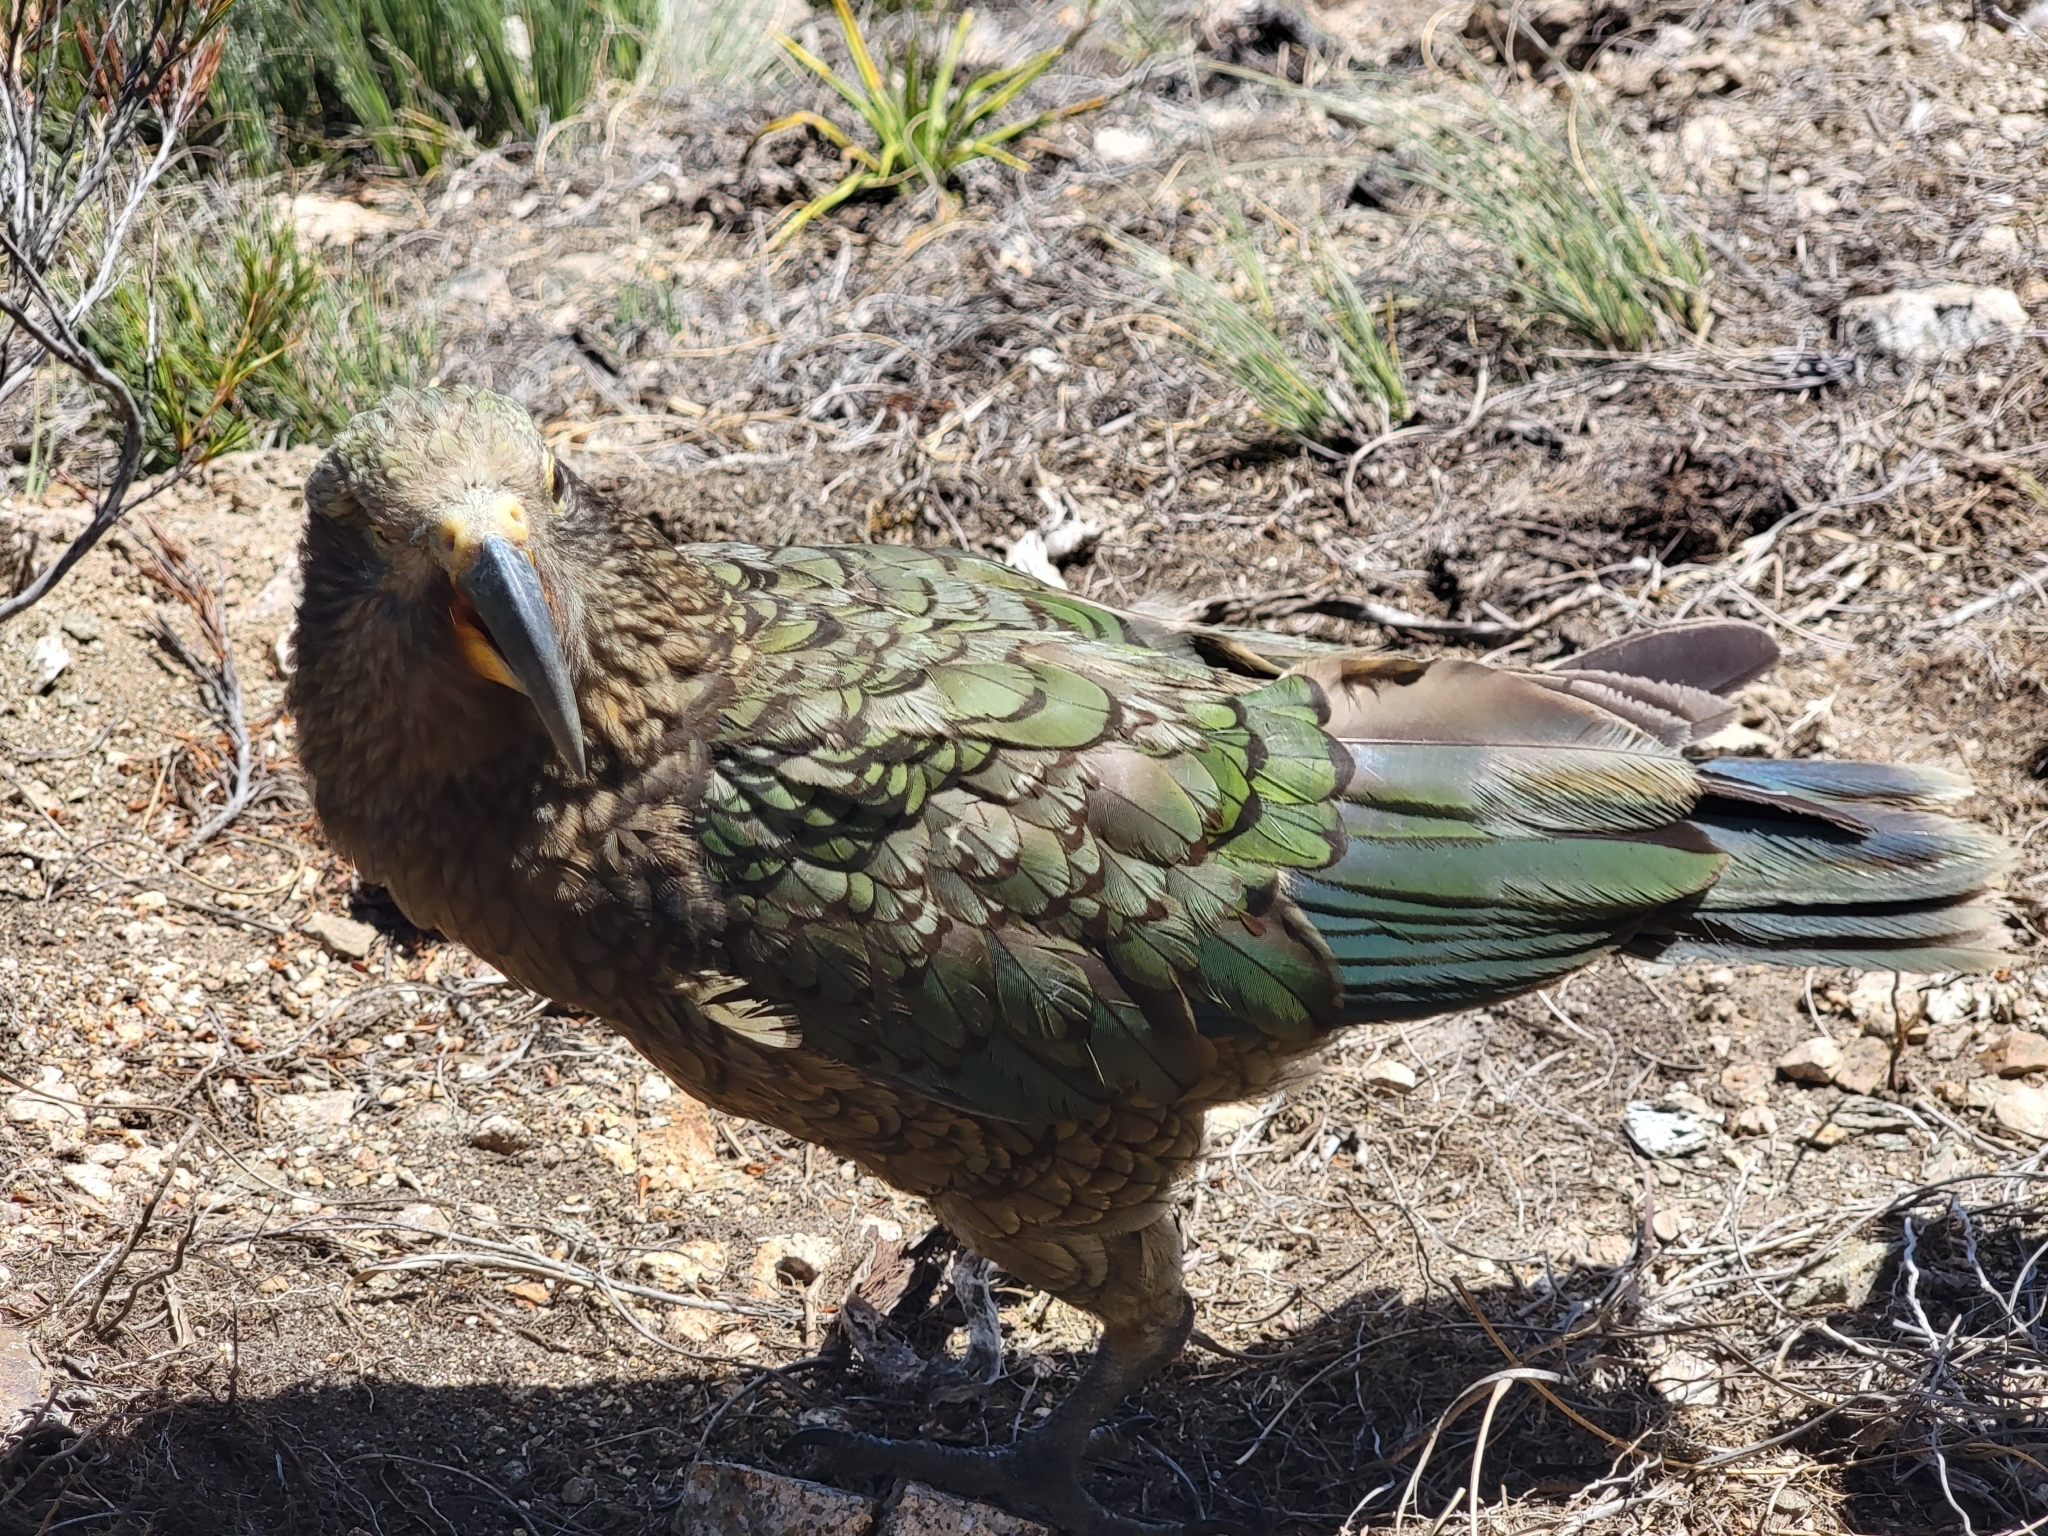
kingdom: Animalia
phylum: Chordata
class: Aves
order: Psittaciformes
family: Psittacidae
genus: Nestor
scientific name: Nestor notabilis
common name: Kea
